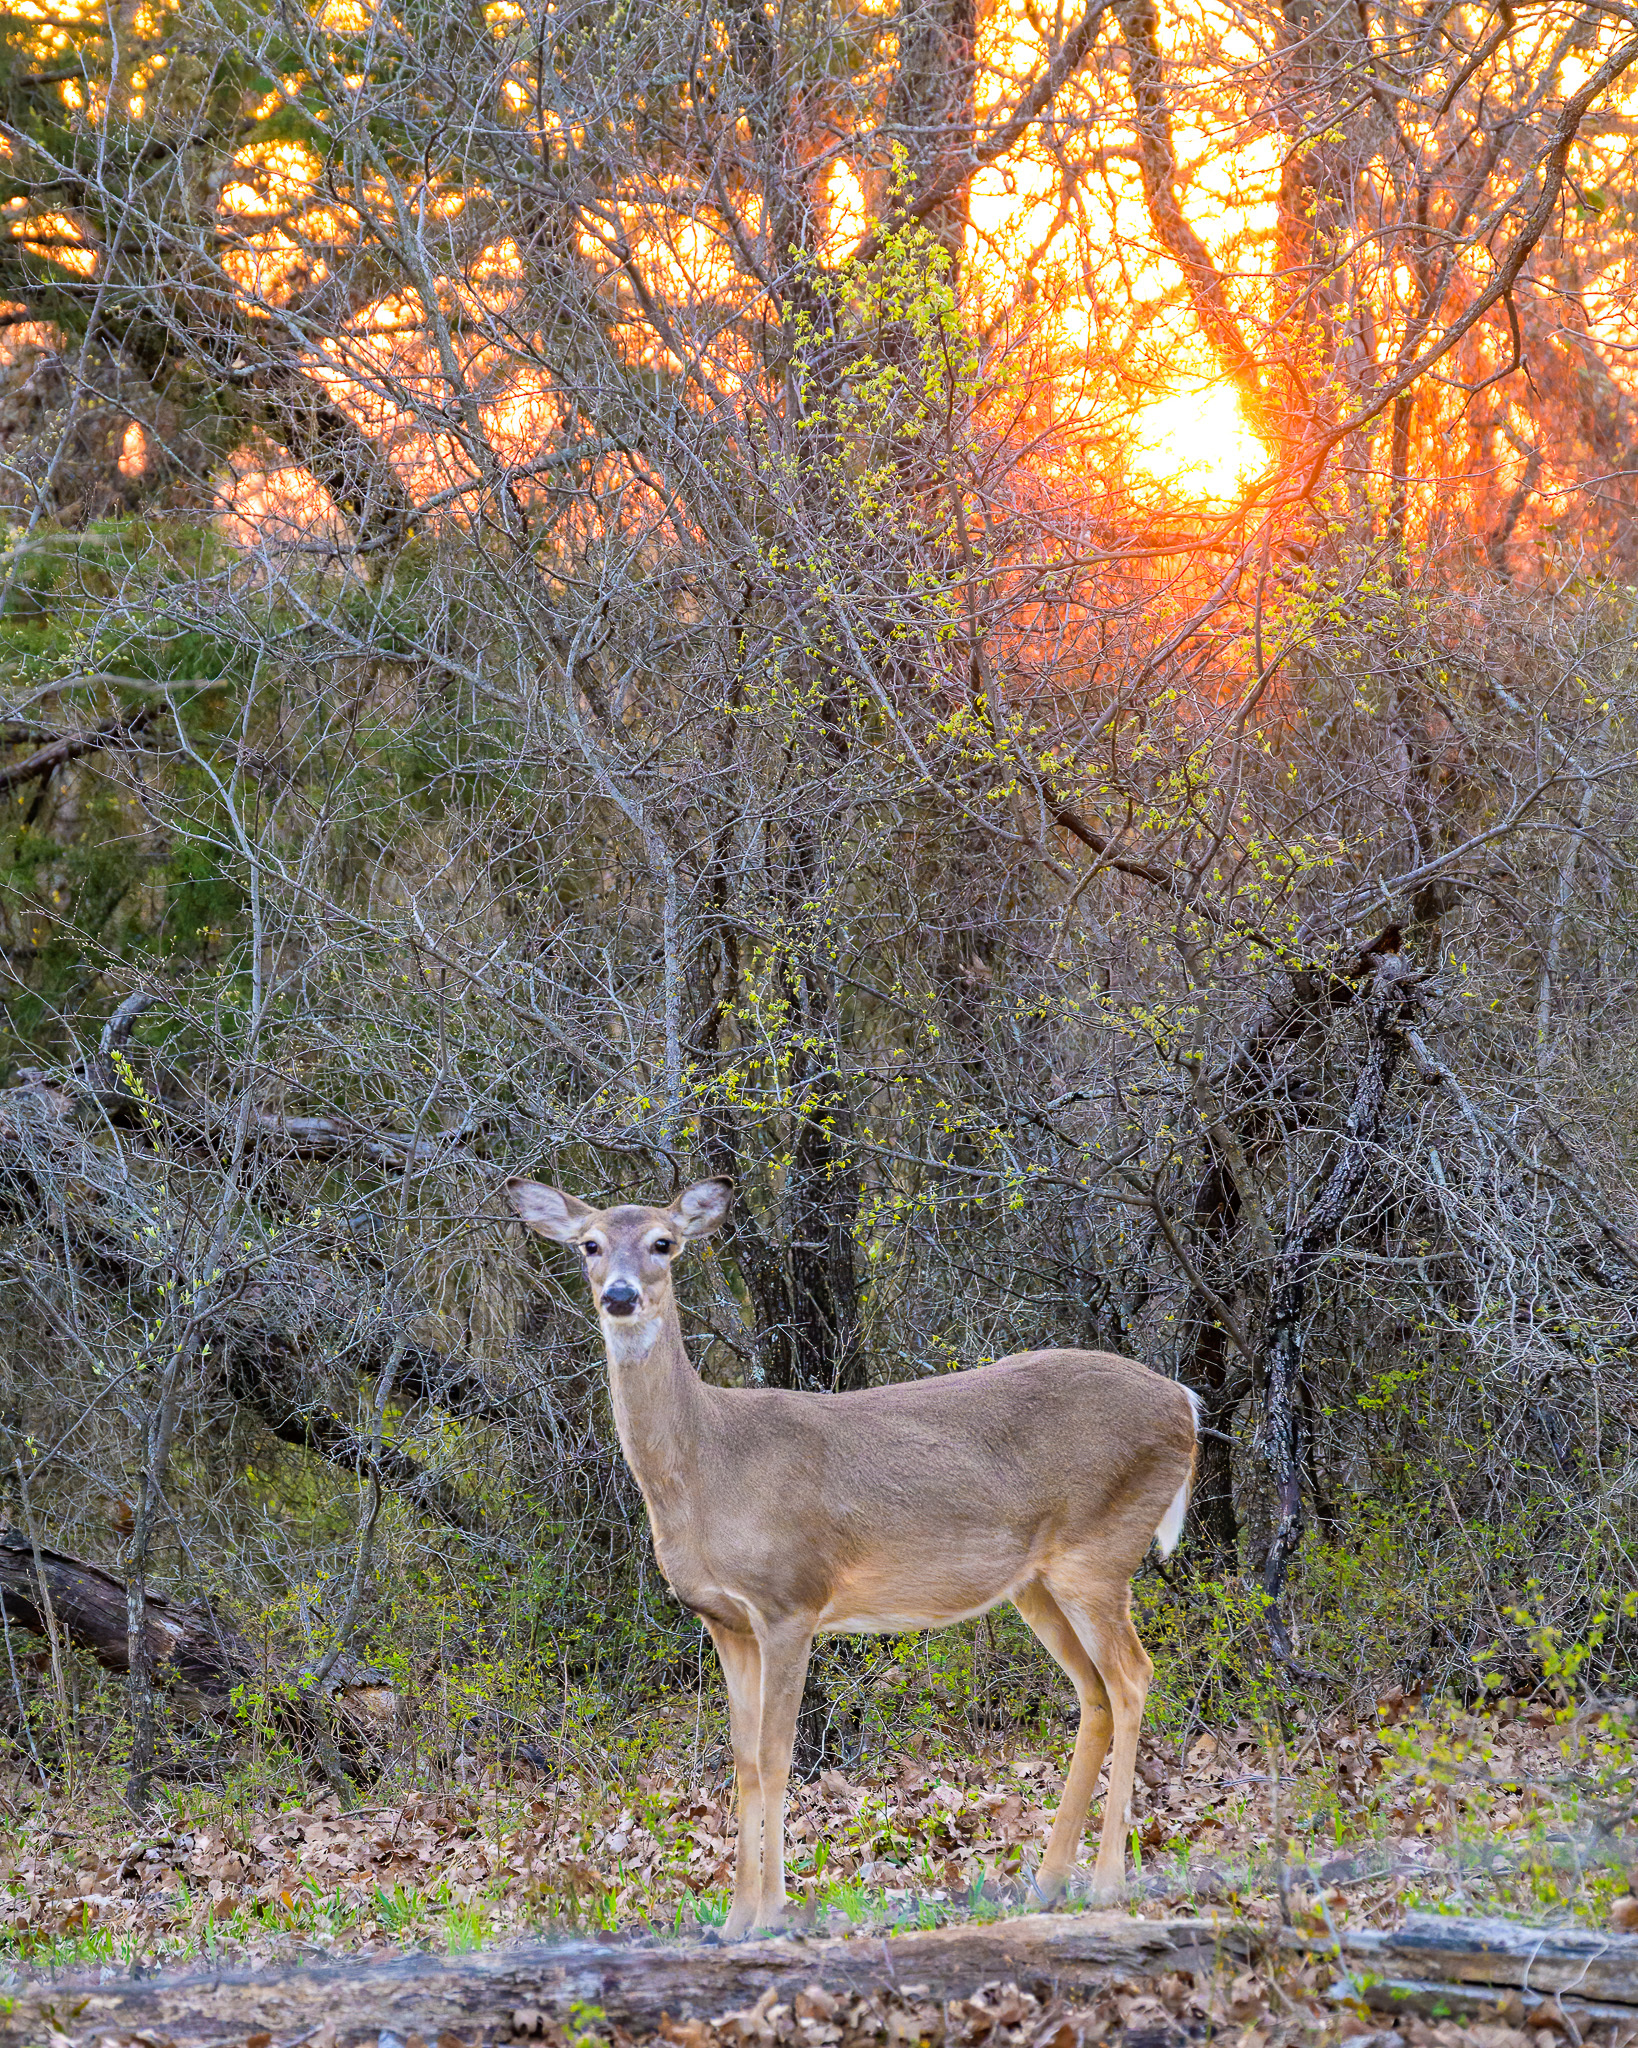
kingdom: Animalia
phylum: Chordata
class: Mammalia
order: Artiodactyla
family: Cervidae
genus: Odocoileus
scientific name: Odocoileus virginianus
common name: White-tailed deer
